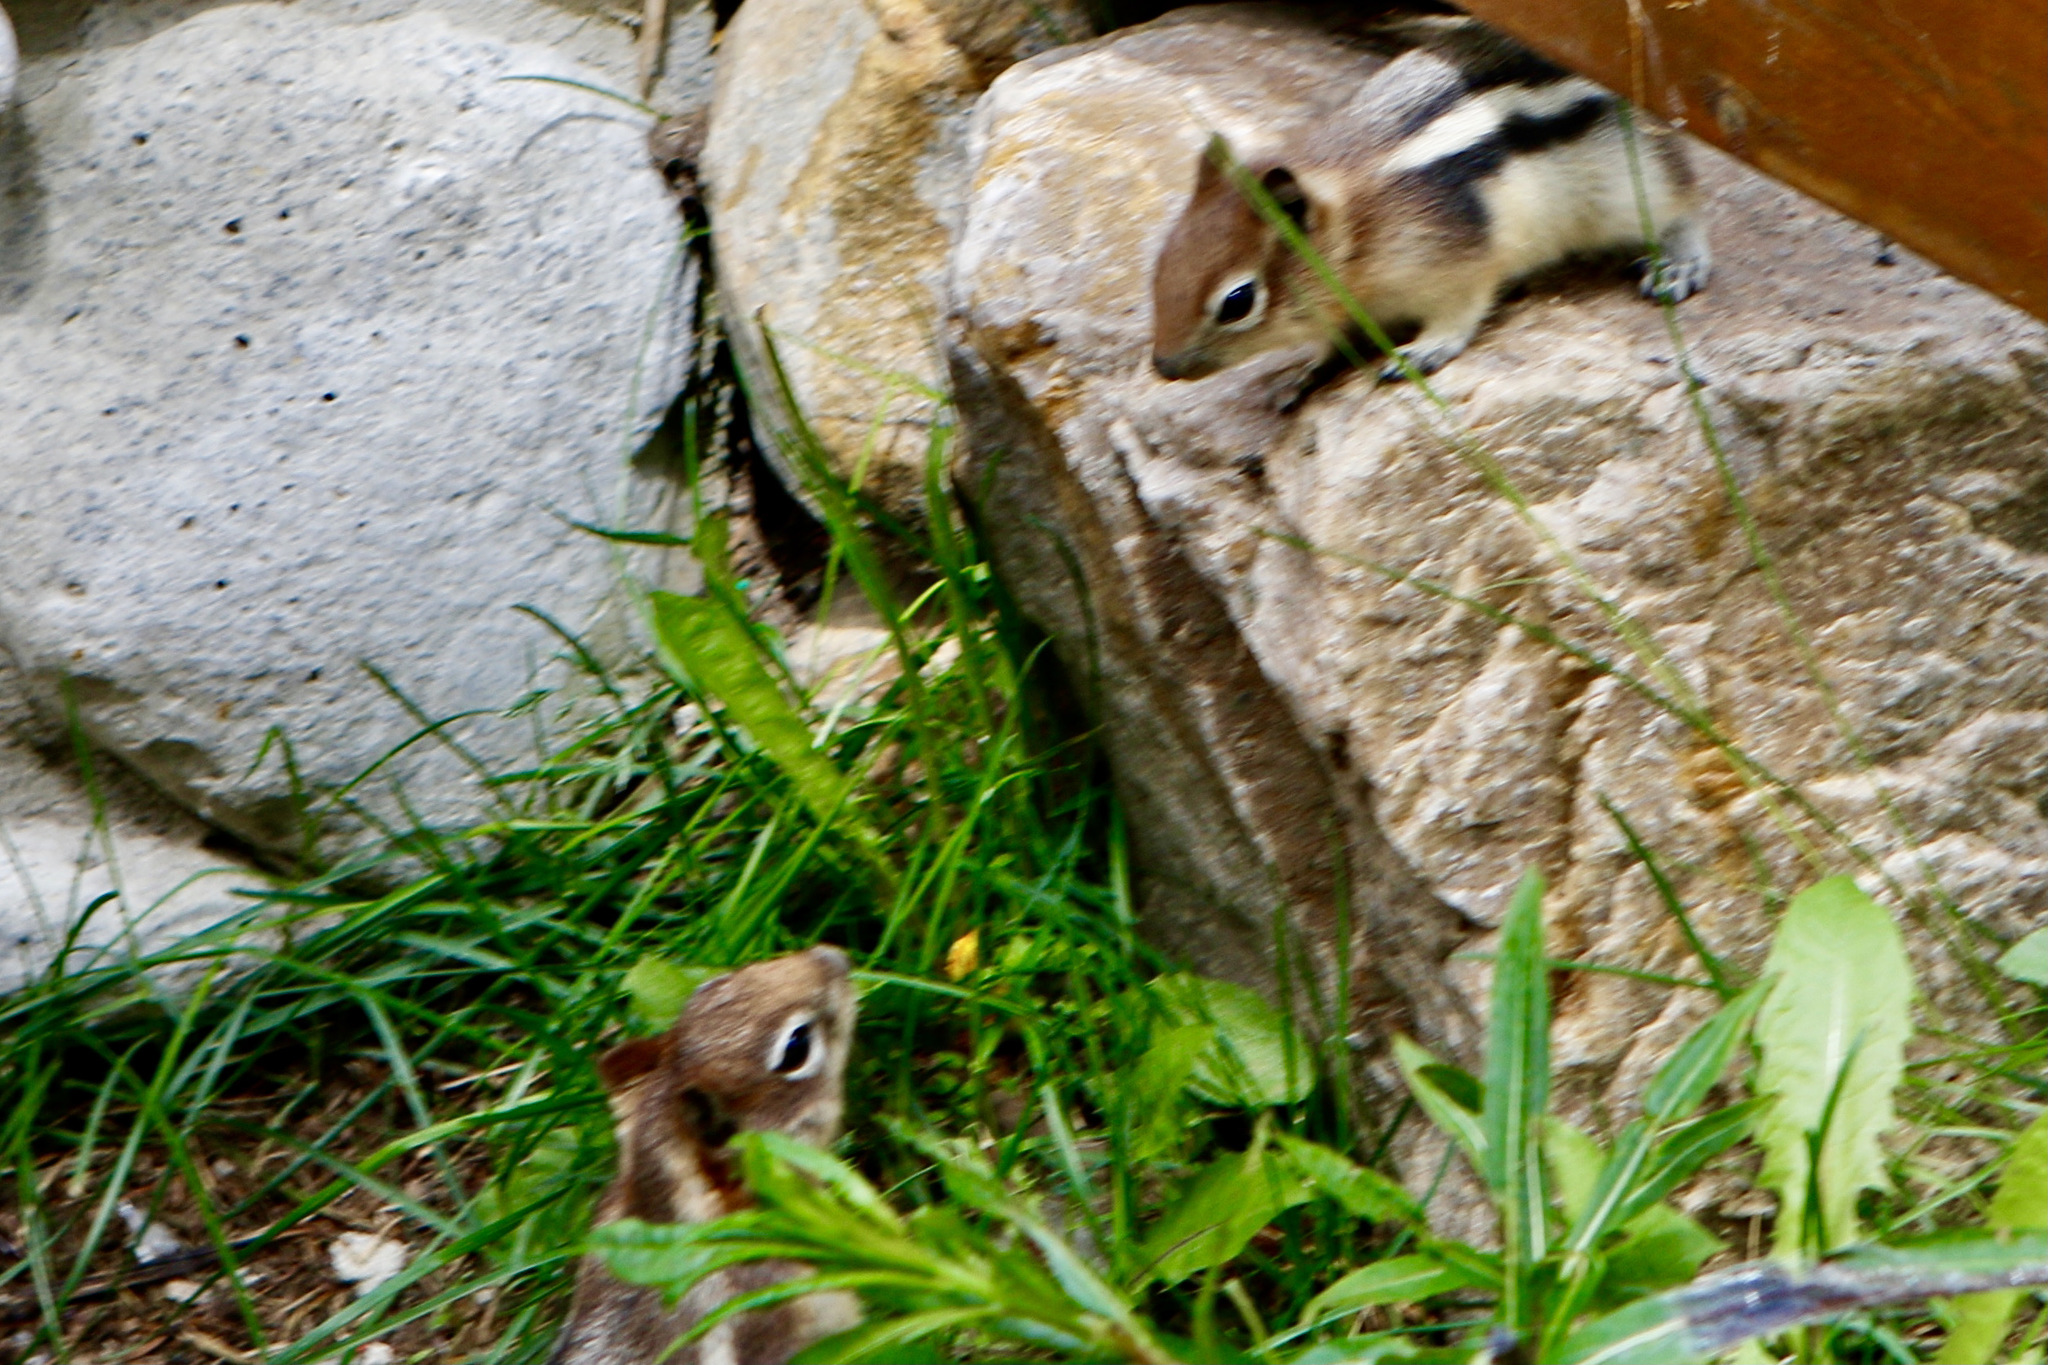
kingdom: Animalia
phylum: Chordata
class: Mammalia
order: Rodentia
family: Sciuridae
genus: Callospermophilus
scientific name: Callospermophilus lateralis
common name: Golden-mantled ground squirrel
